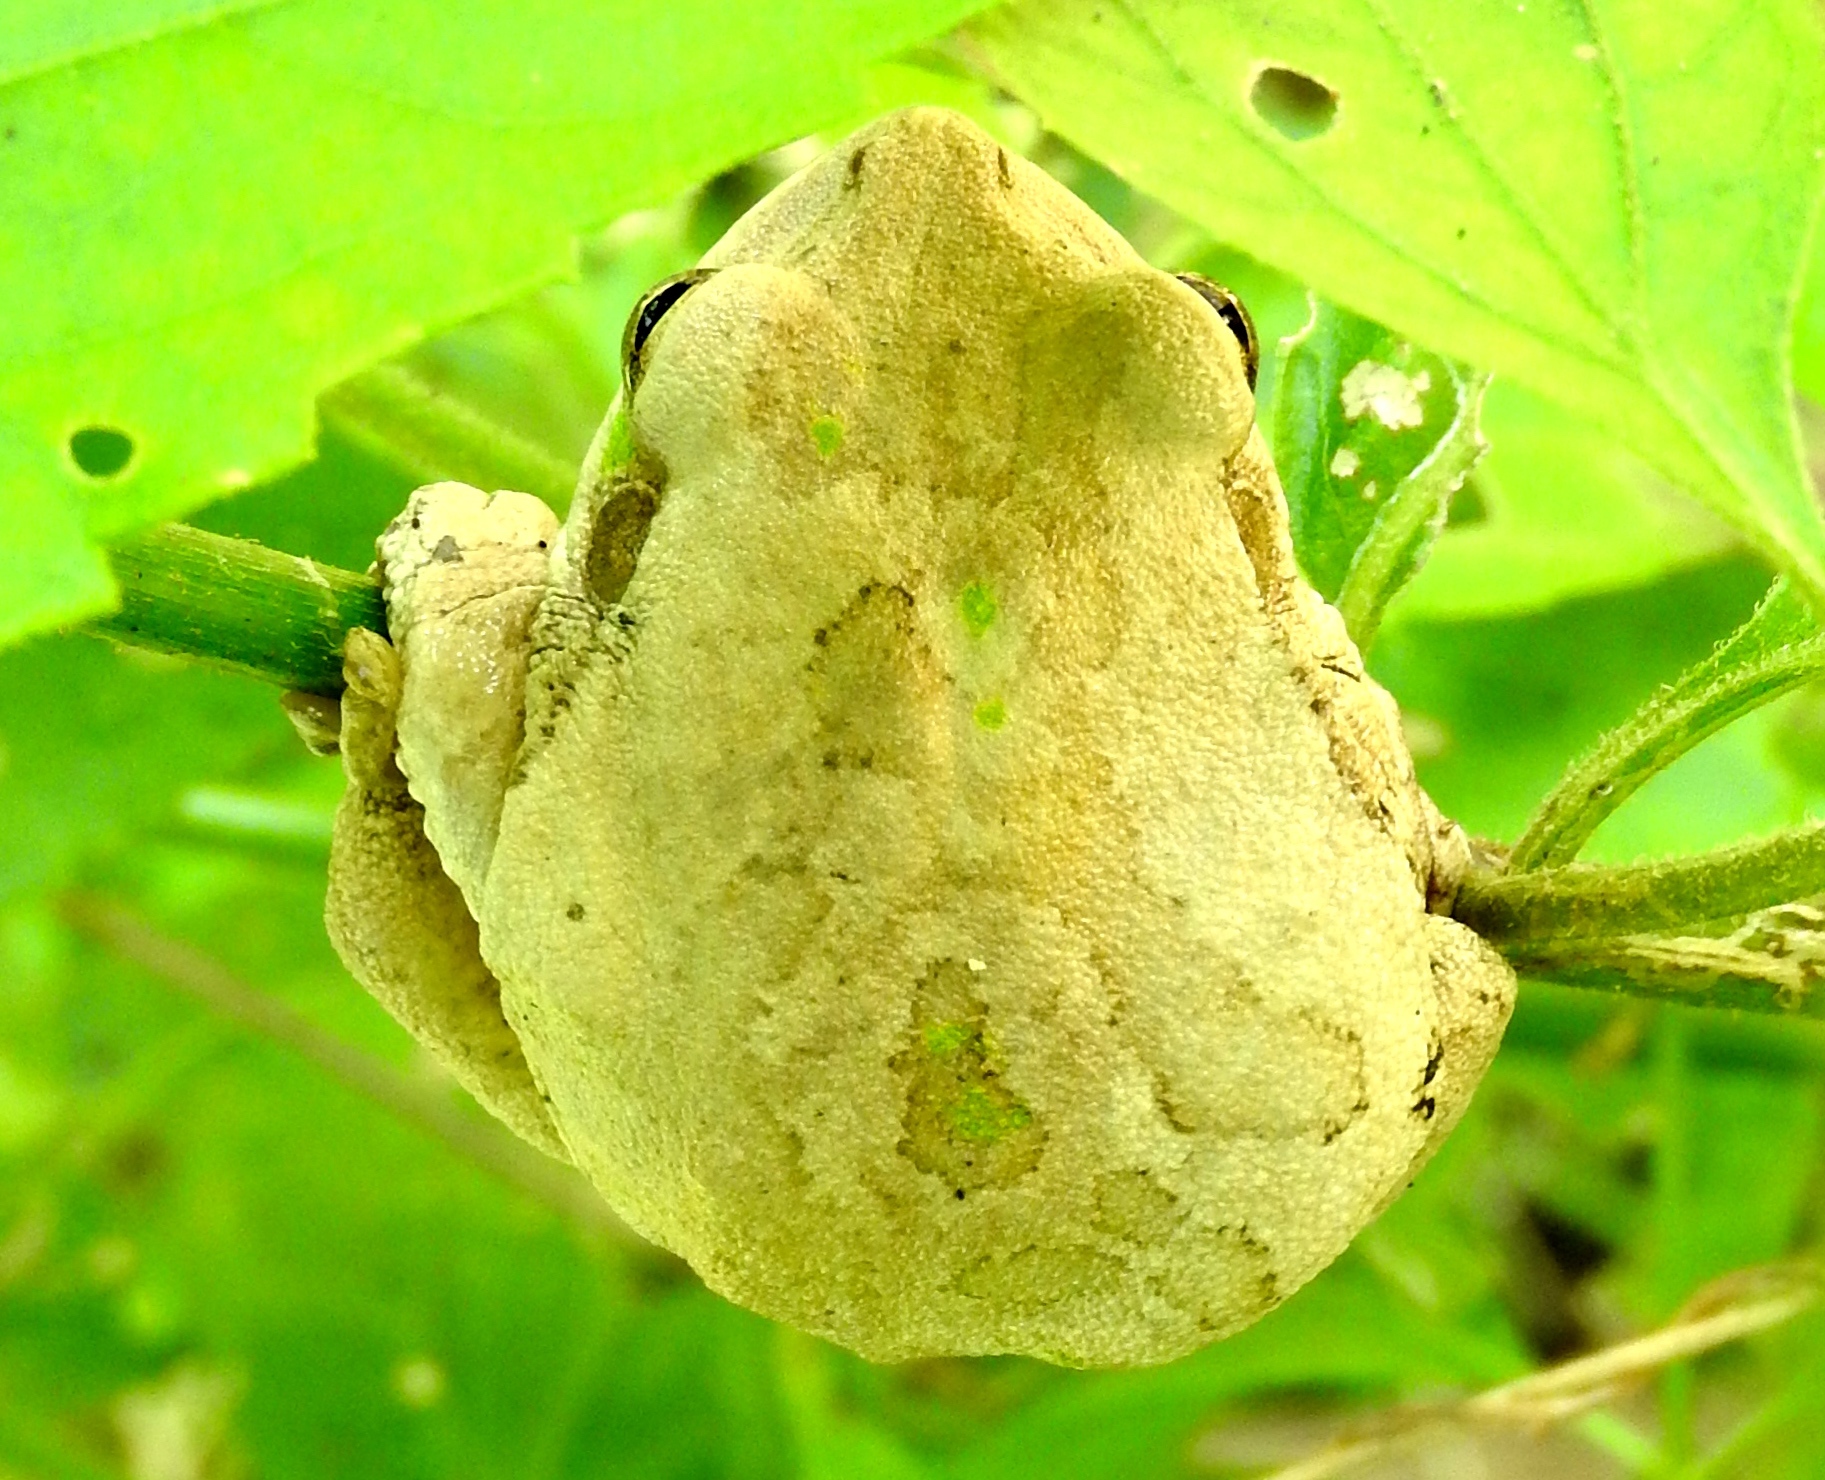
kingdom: Animalia
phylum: Chordata
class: Amphibia
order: Anura
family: Hylidae
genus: Smilisca
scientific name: Smilisca baudinii
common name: Mexican smilisca
